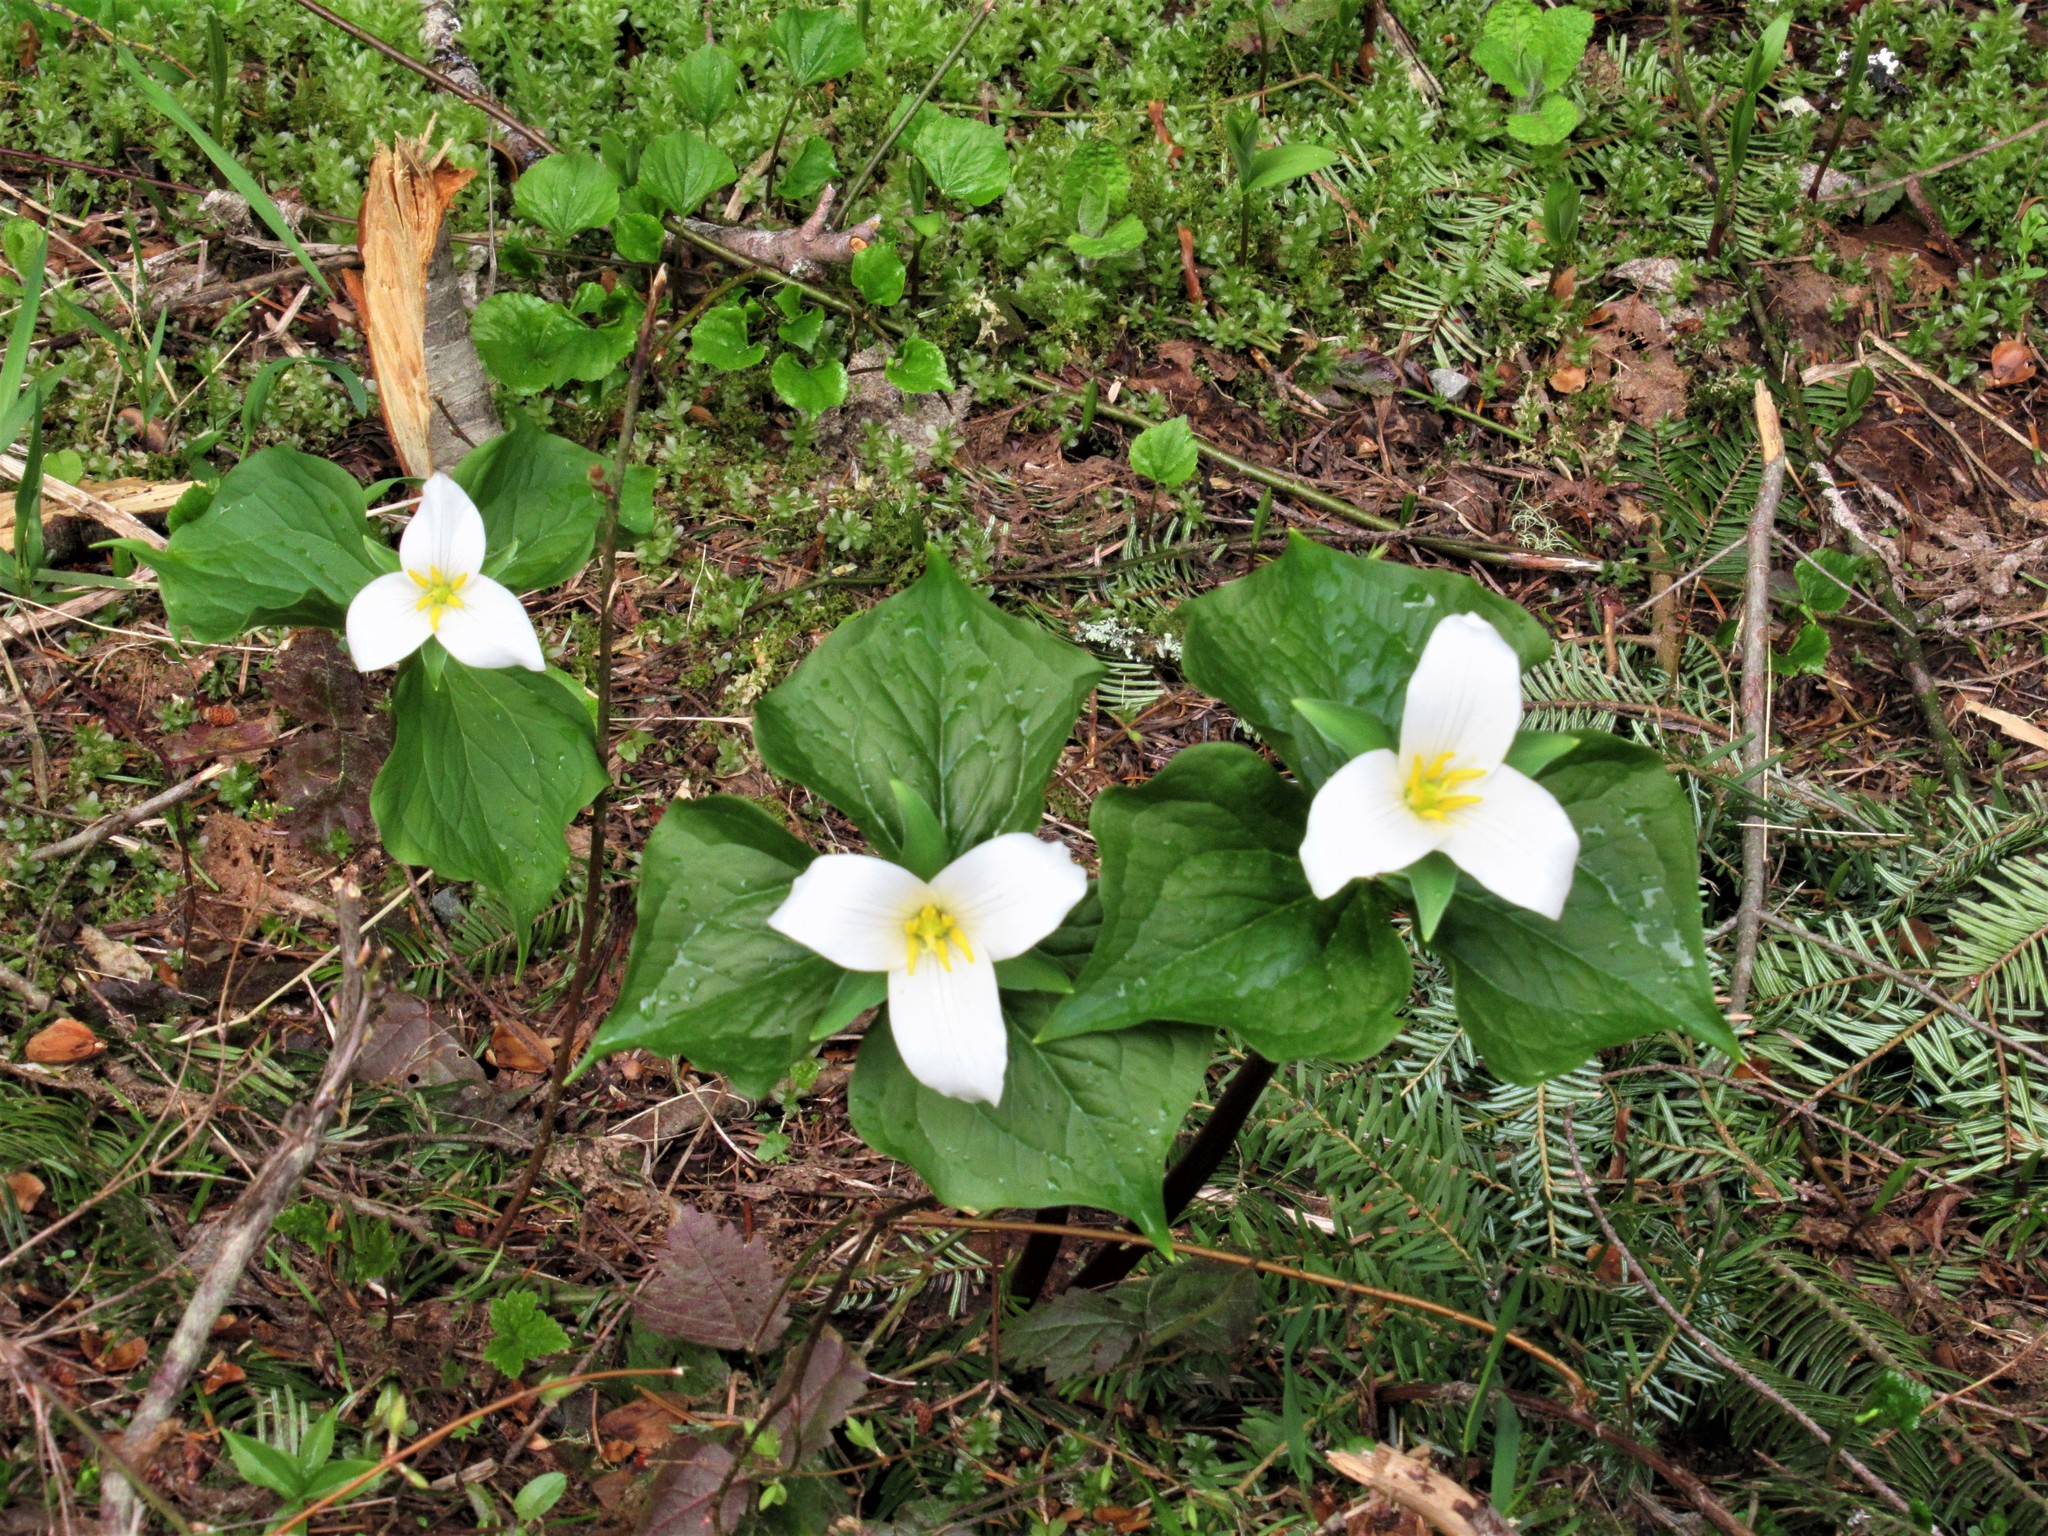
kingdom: Plantae
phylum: Tracheophyta
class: Liliopsida
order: Liliales
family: Melanthiaceae
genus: Trillium
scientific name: Trillium ovatum
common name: Pacific trillium
